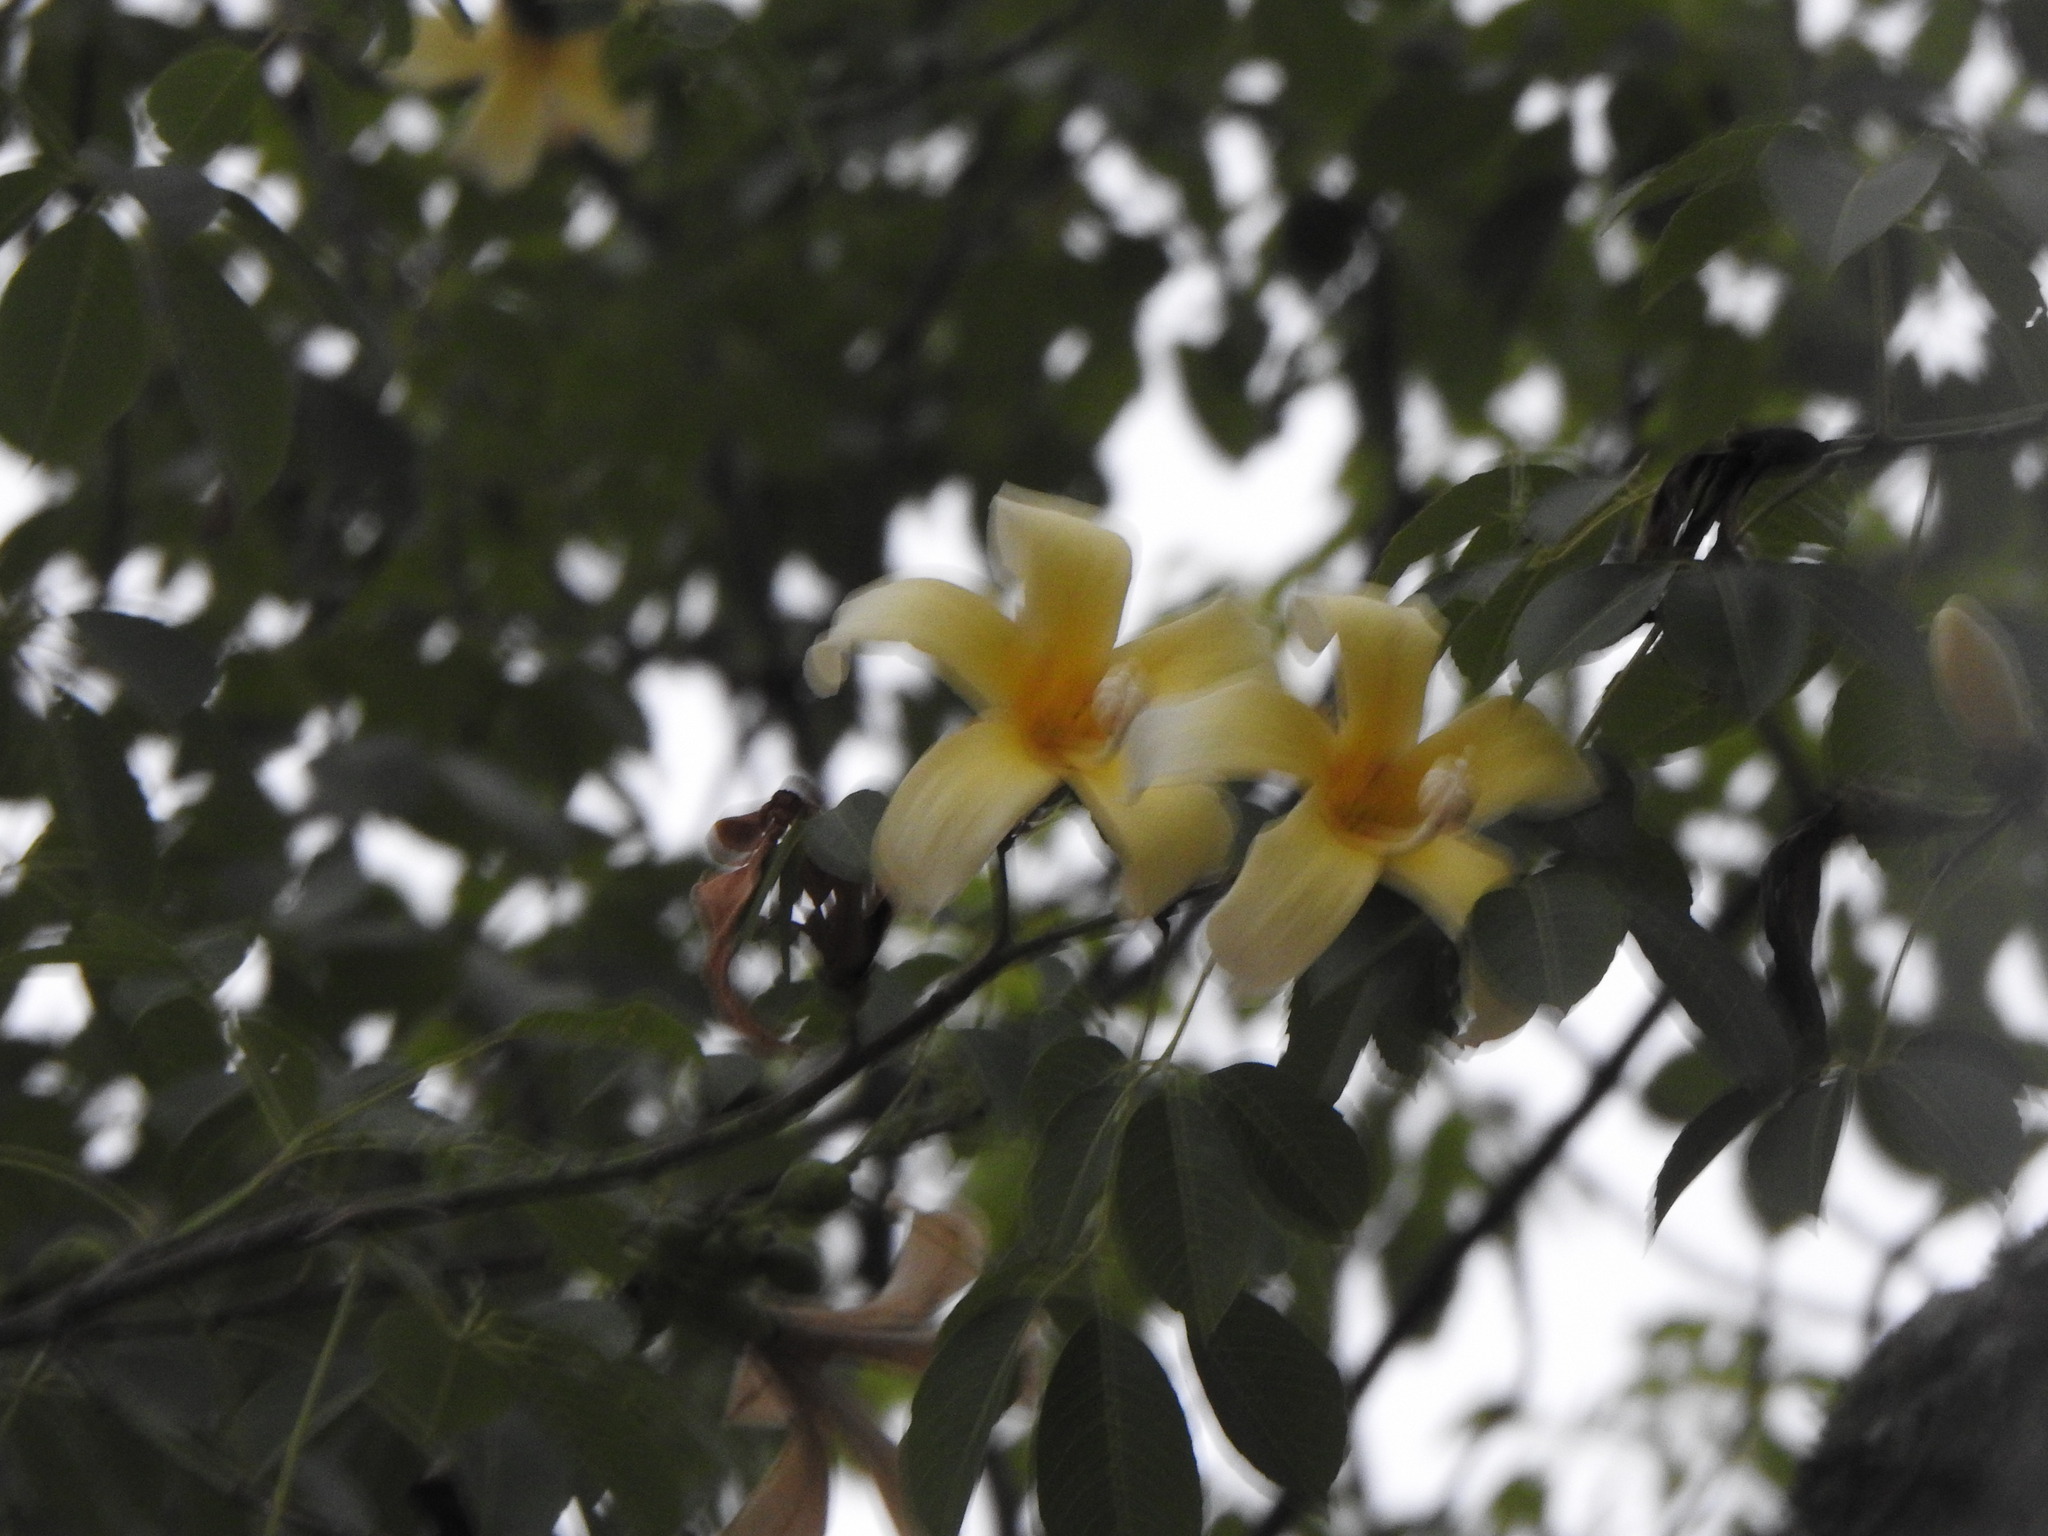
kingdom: Plantae
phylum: Tracheophyta
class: Magnoliopsida
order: Malvales
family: Malvaceae
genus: Ceiba
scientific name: Ceiba chodatii
